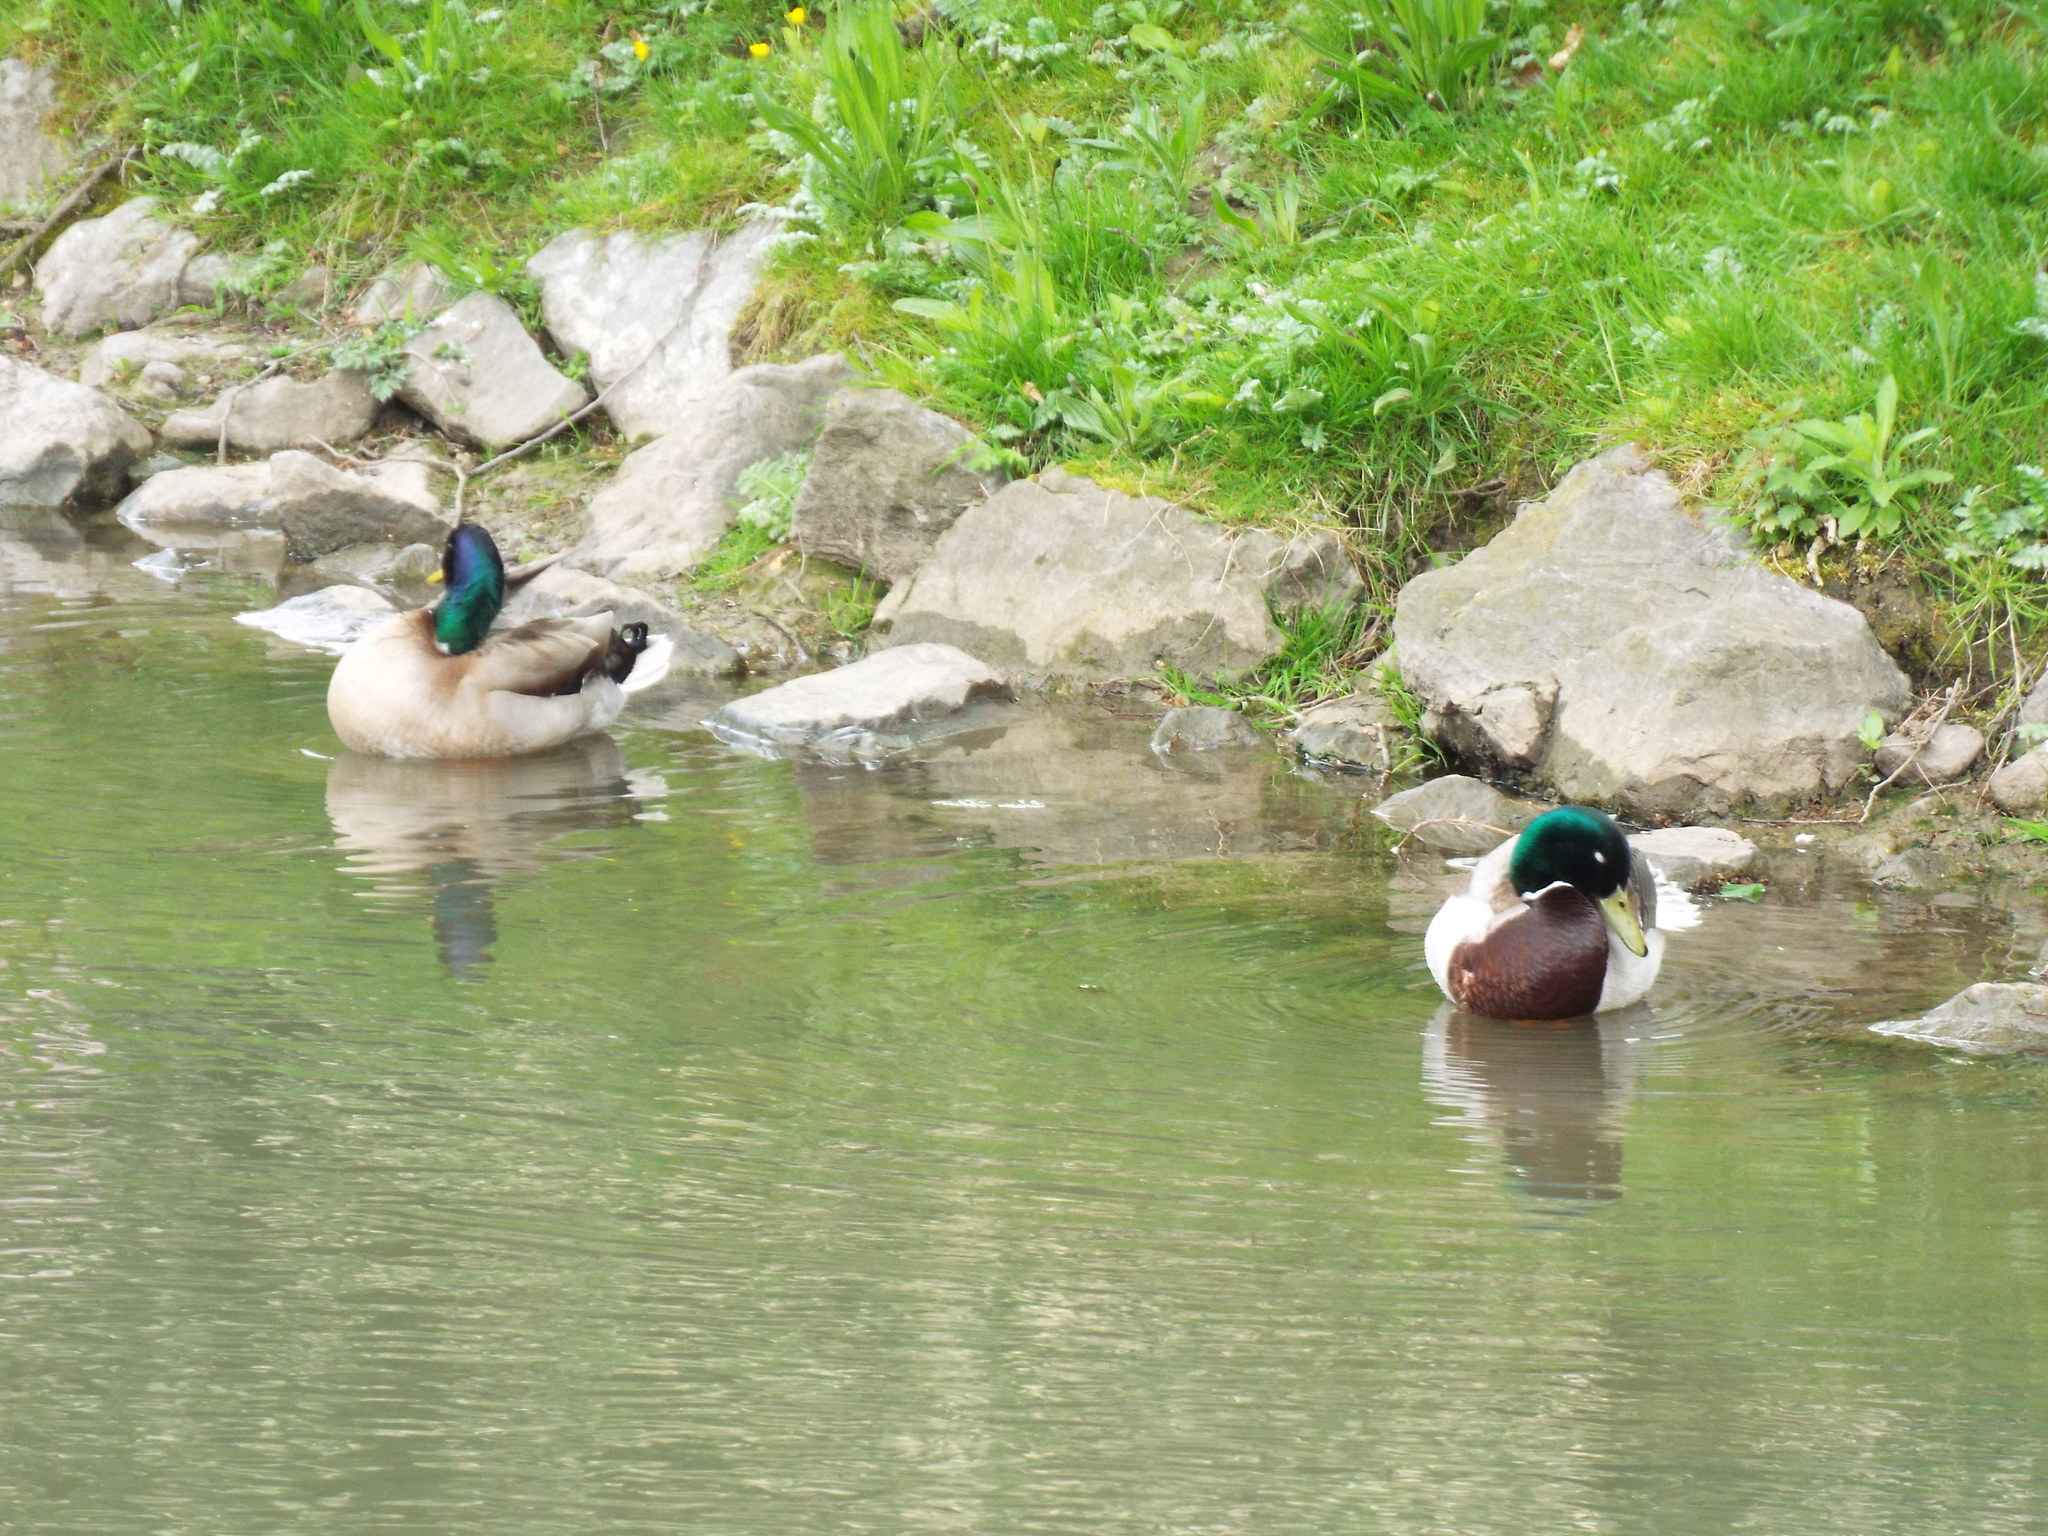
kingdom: Animalia
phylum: Chordata
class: Aves
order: Anseriformes
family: Anatidae
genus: Anas
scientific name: Anas platyrhynchos
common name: Mallard
